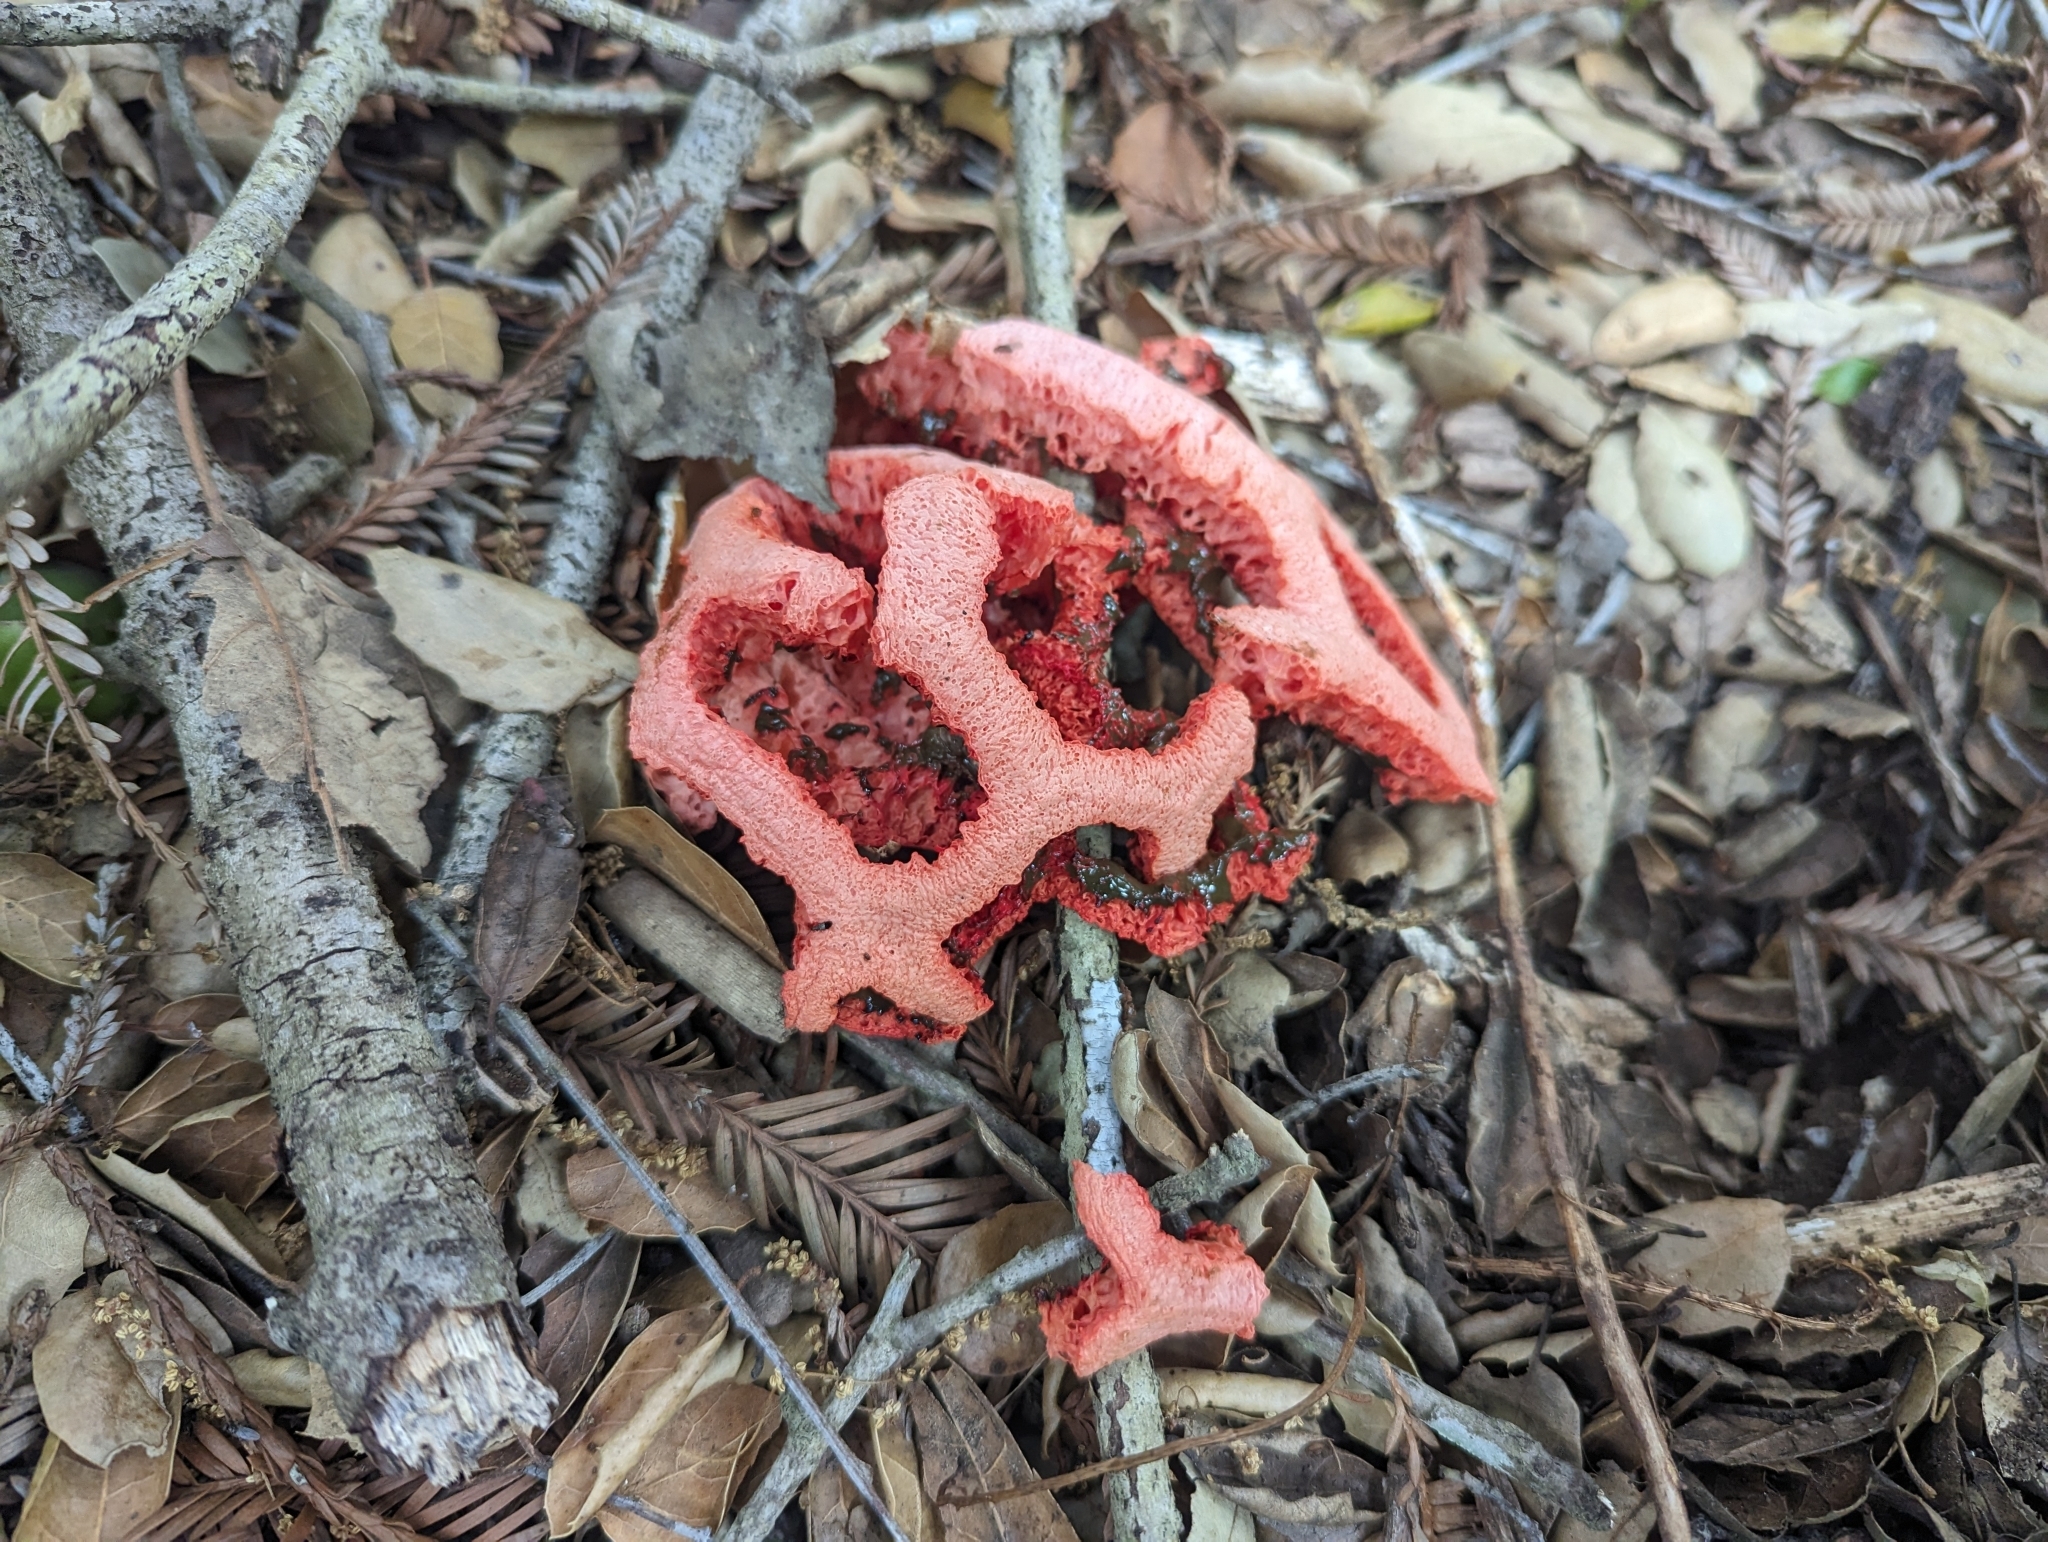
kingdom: Fungi
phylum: Basidiomycota
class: Agaricomycetes
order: Phallales
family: Phallaceae
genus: Clathrus
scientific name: Clathrus ruber
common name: Red cage
